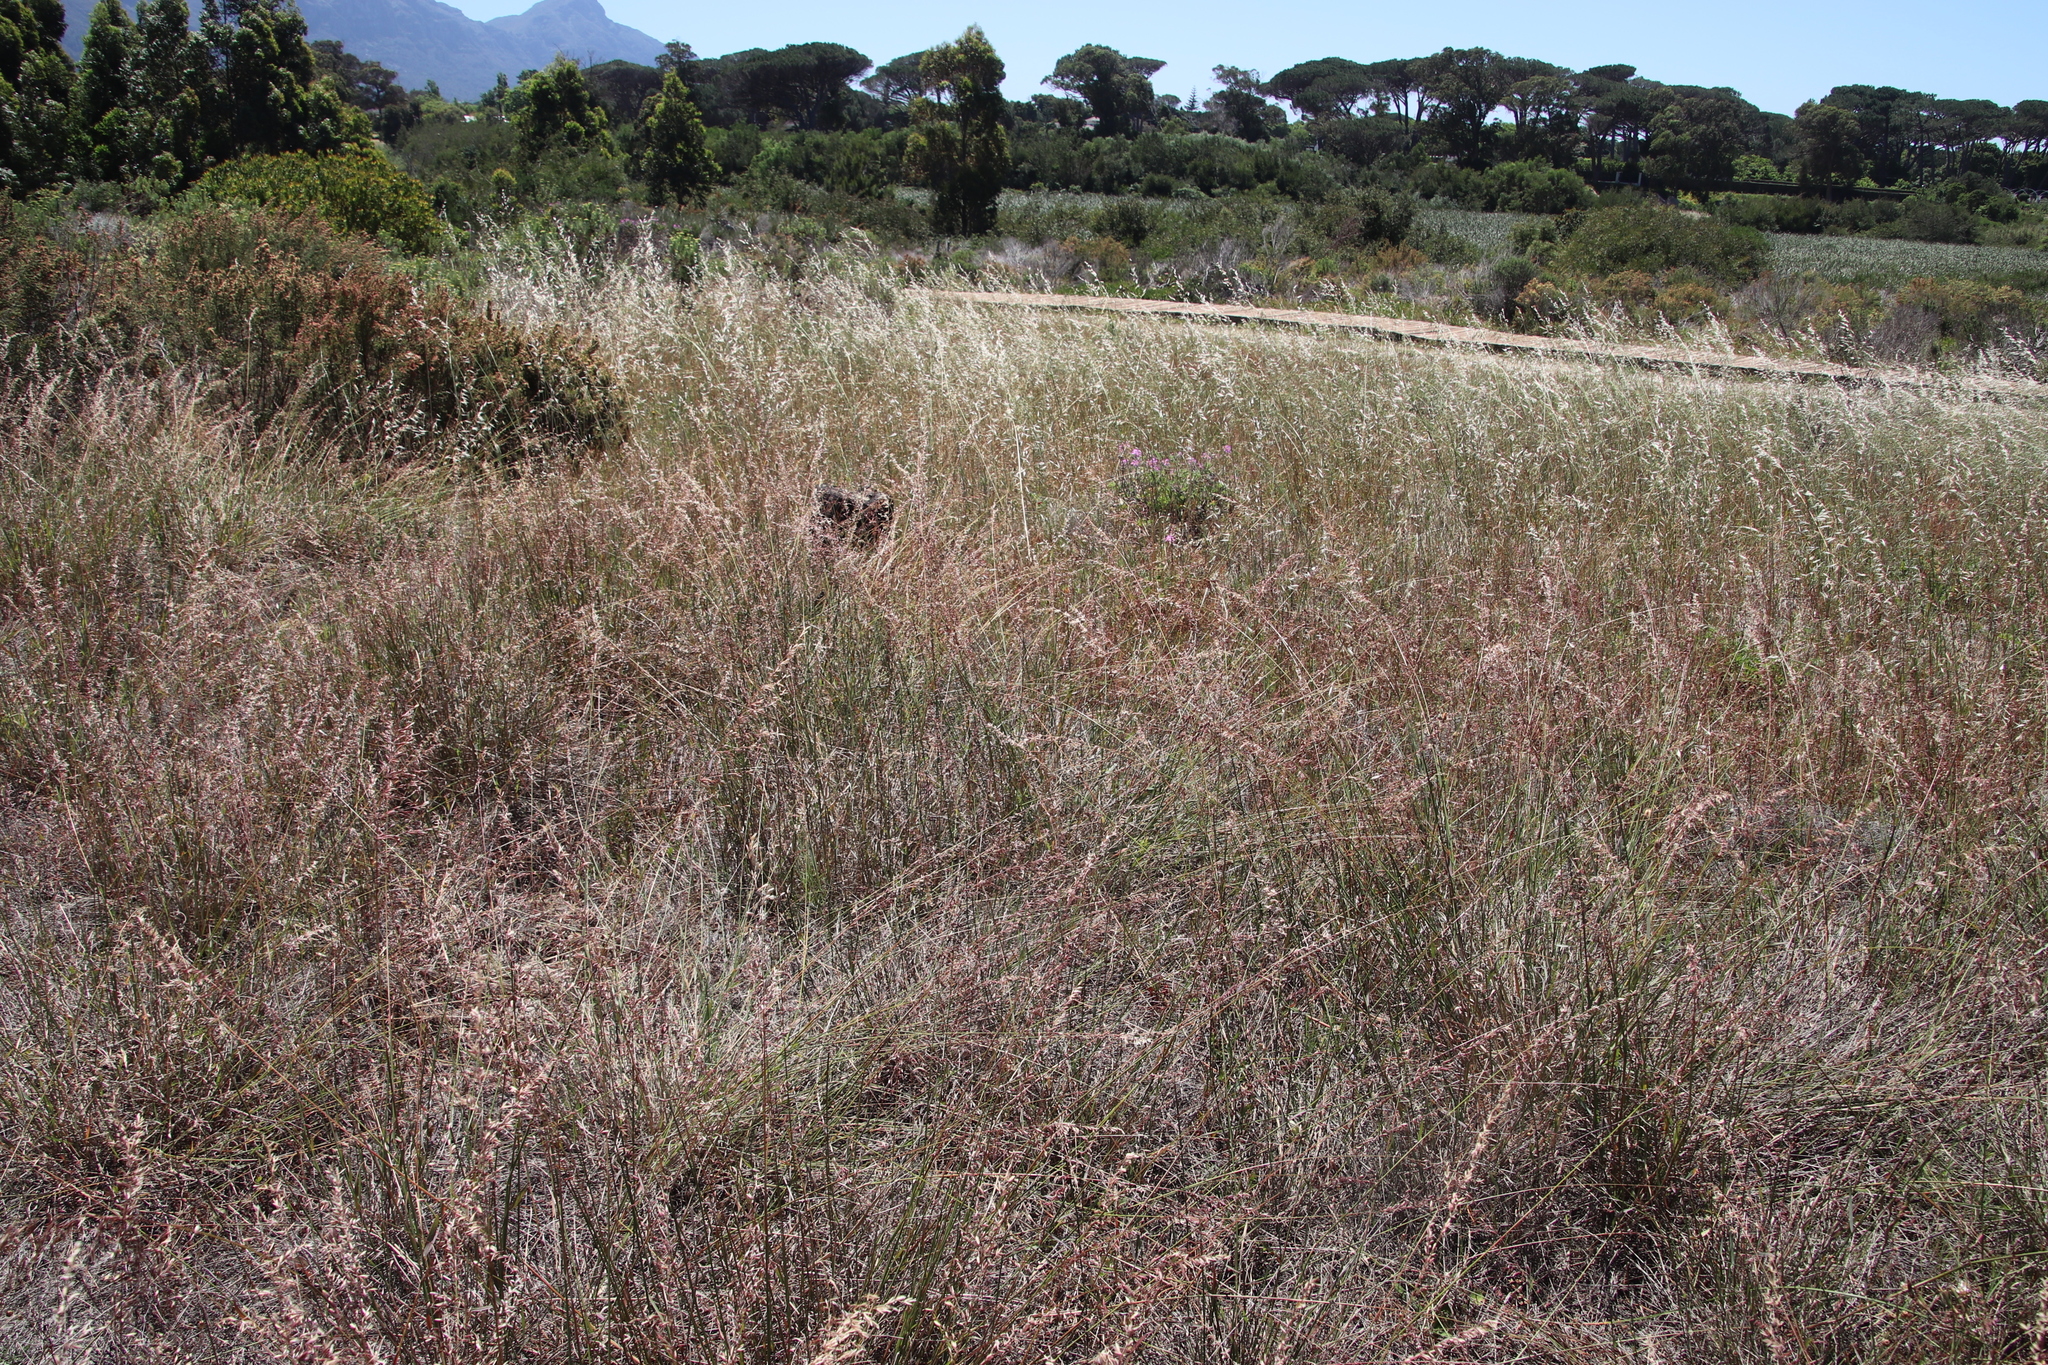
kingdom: Plantae
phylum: Tracheophyta
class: Liliopsida
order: Poales
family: Poaceae
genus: Ehrharta
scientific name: Ehrharta calycina
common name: Perennial veldtgrass
